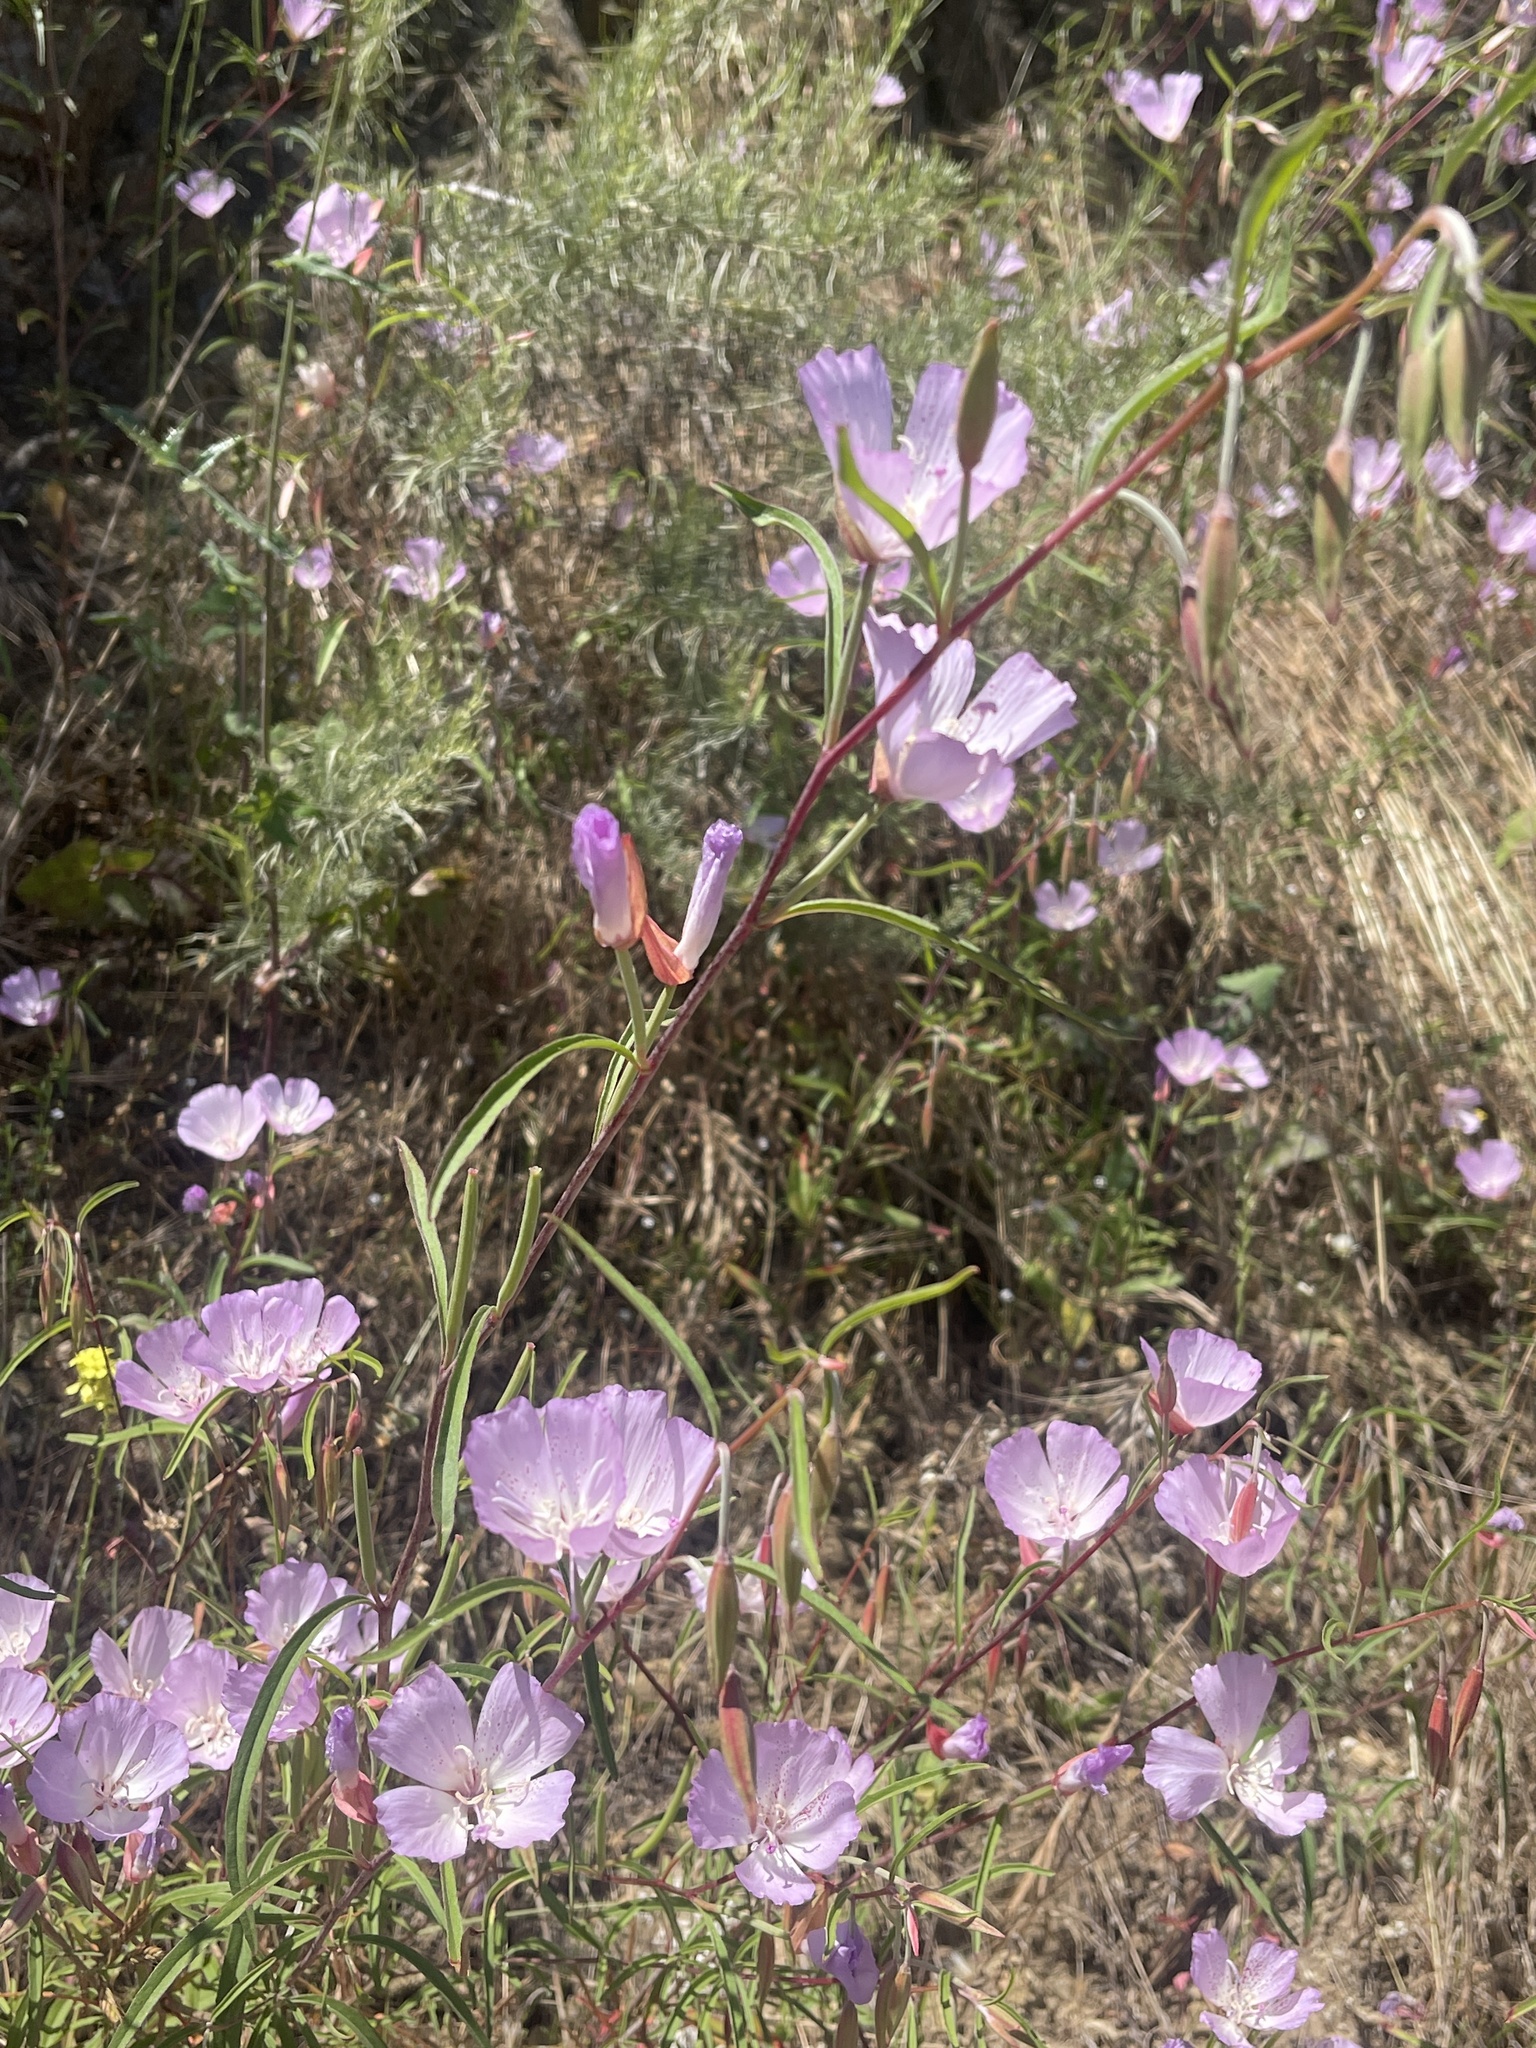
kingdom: Plantae
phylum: Tracheophyta
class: Magnoliopsida
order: Myrtales
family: Onagraceae
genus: Clarkia
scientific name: Clarkia bottae
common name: Punch-bowl godetia
